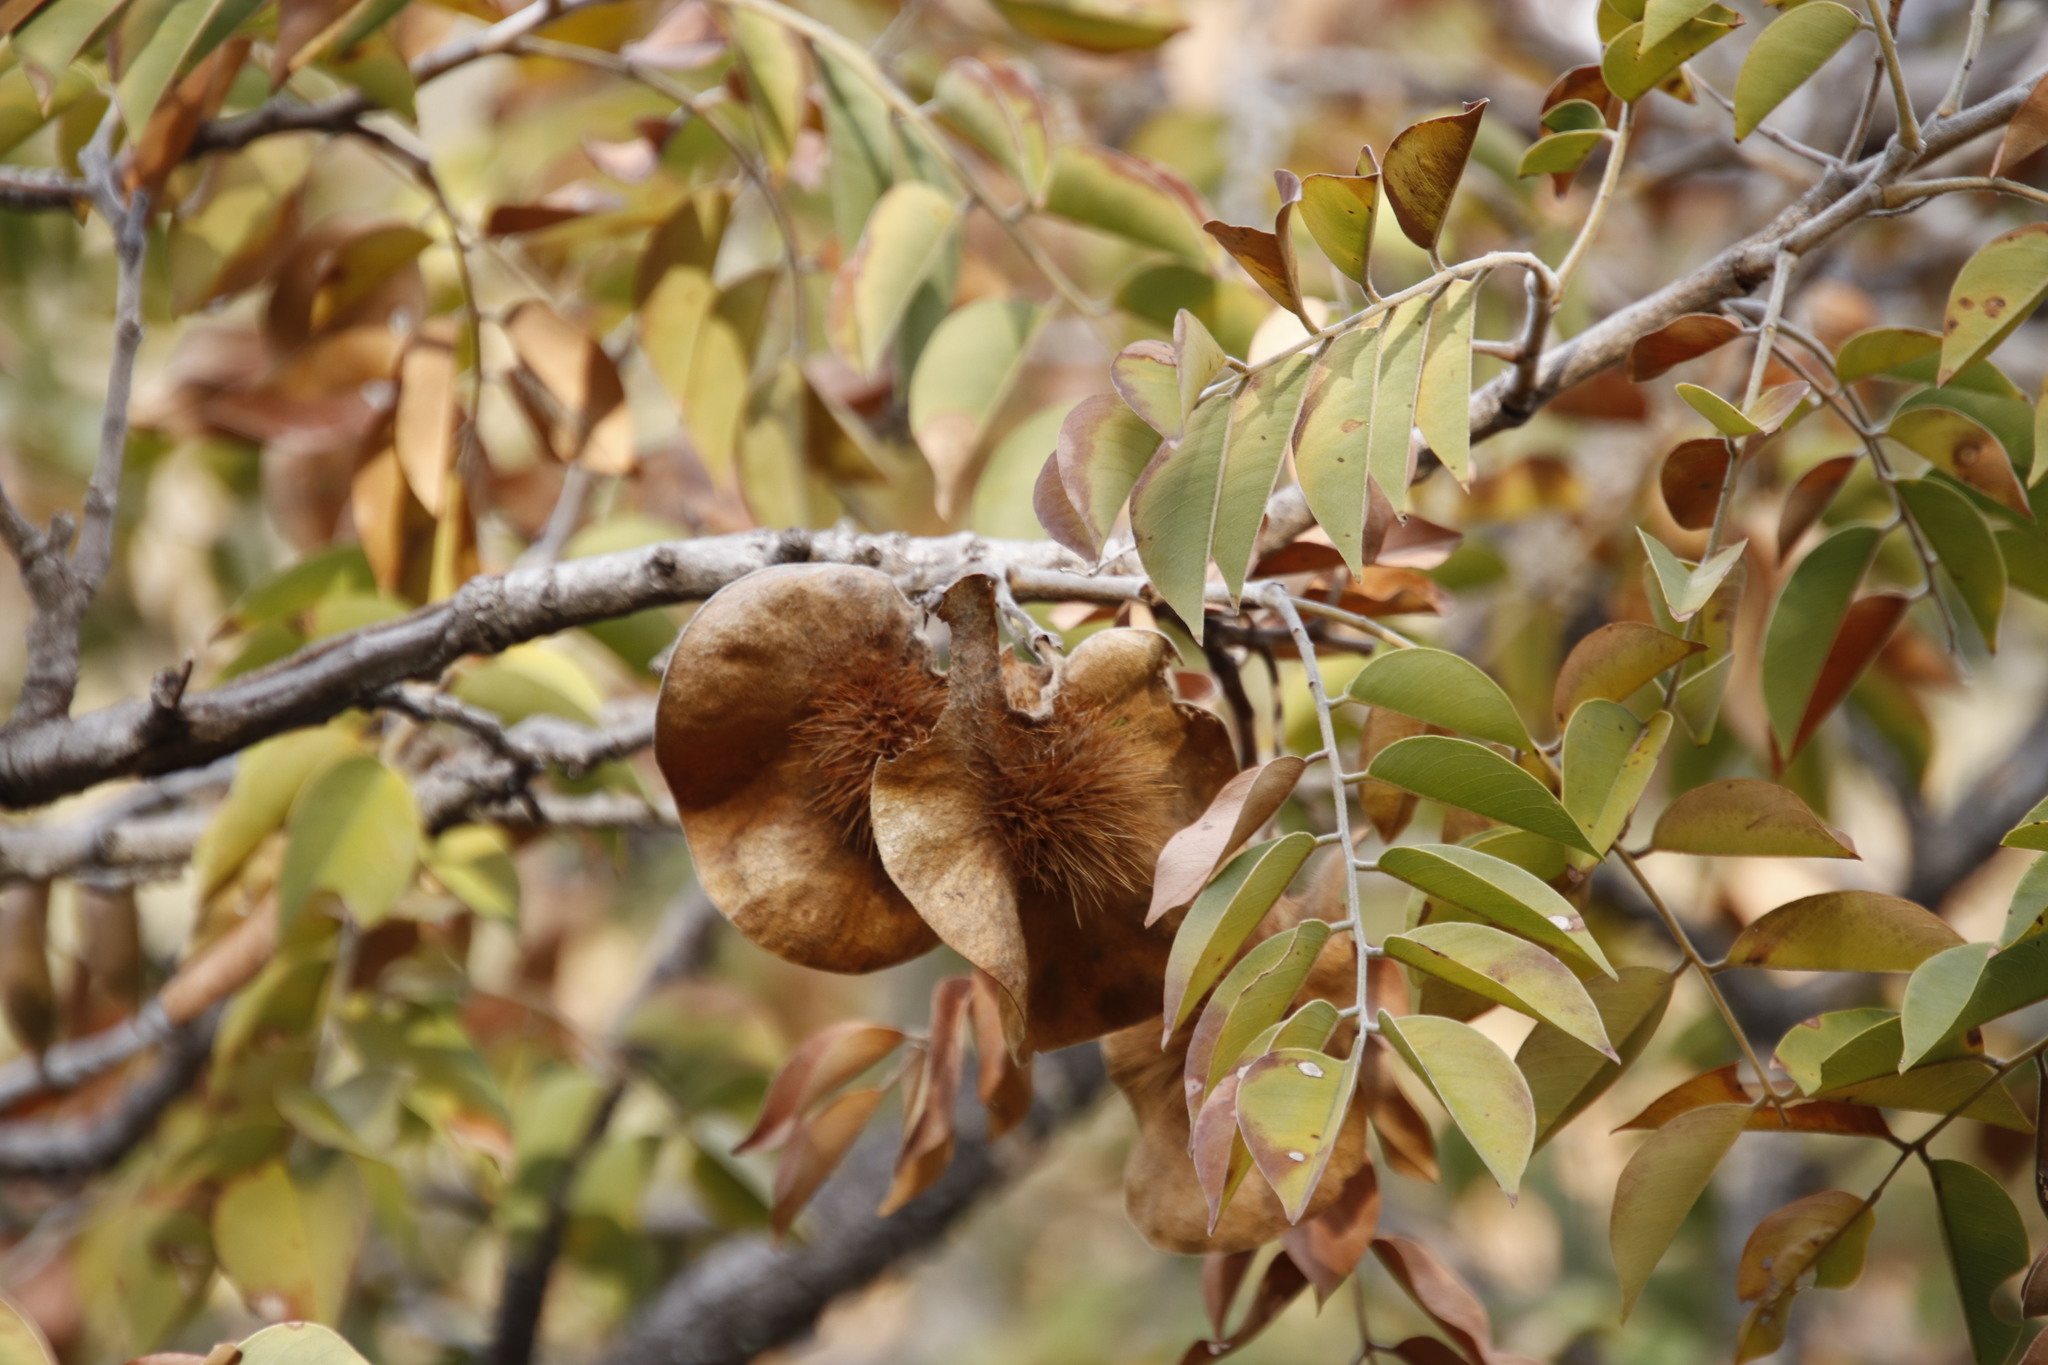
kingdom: Plantae
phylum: Tracheophyta
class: Magnoliopsida
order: Fabales
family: Fabaceae
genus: Pterocarpus
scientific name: Pterocarpus angolensis
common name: Bloodwood tree
